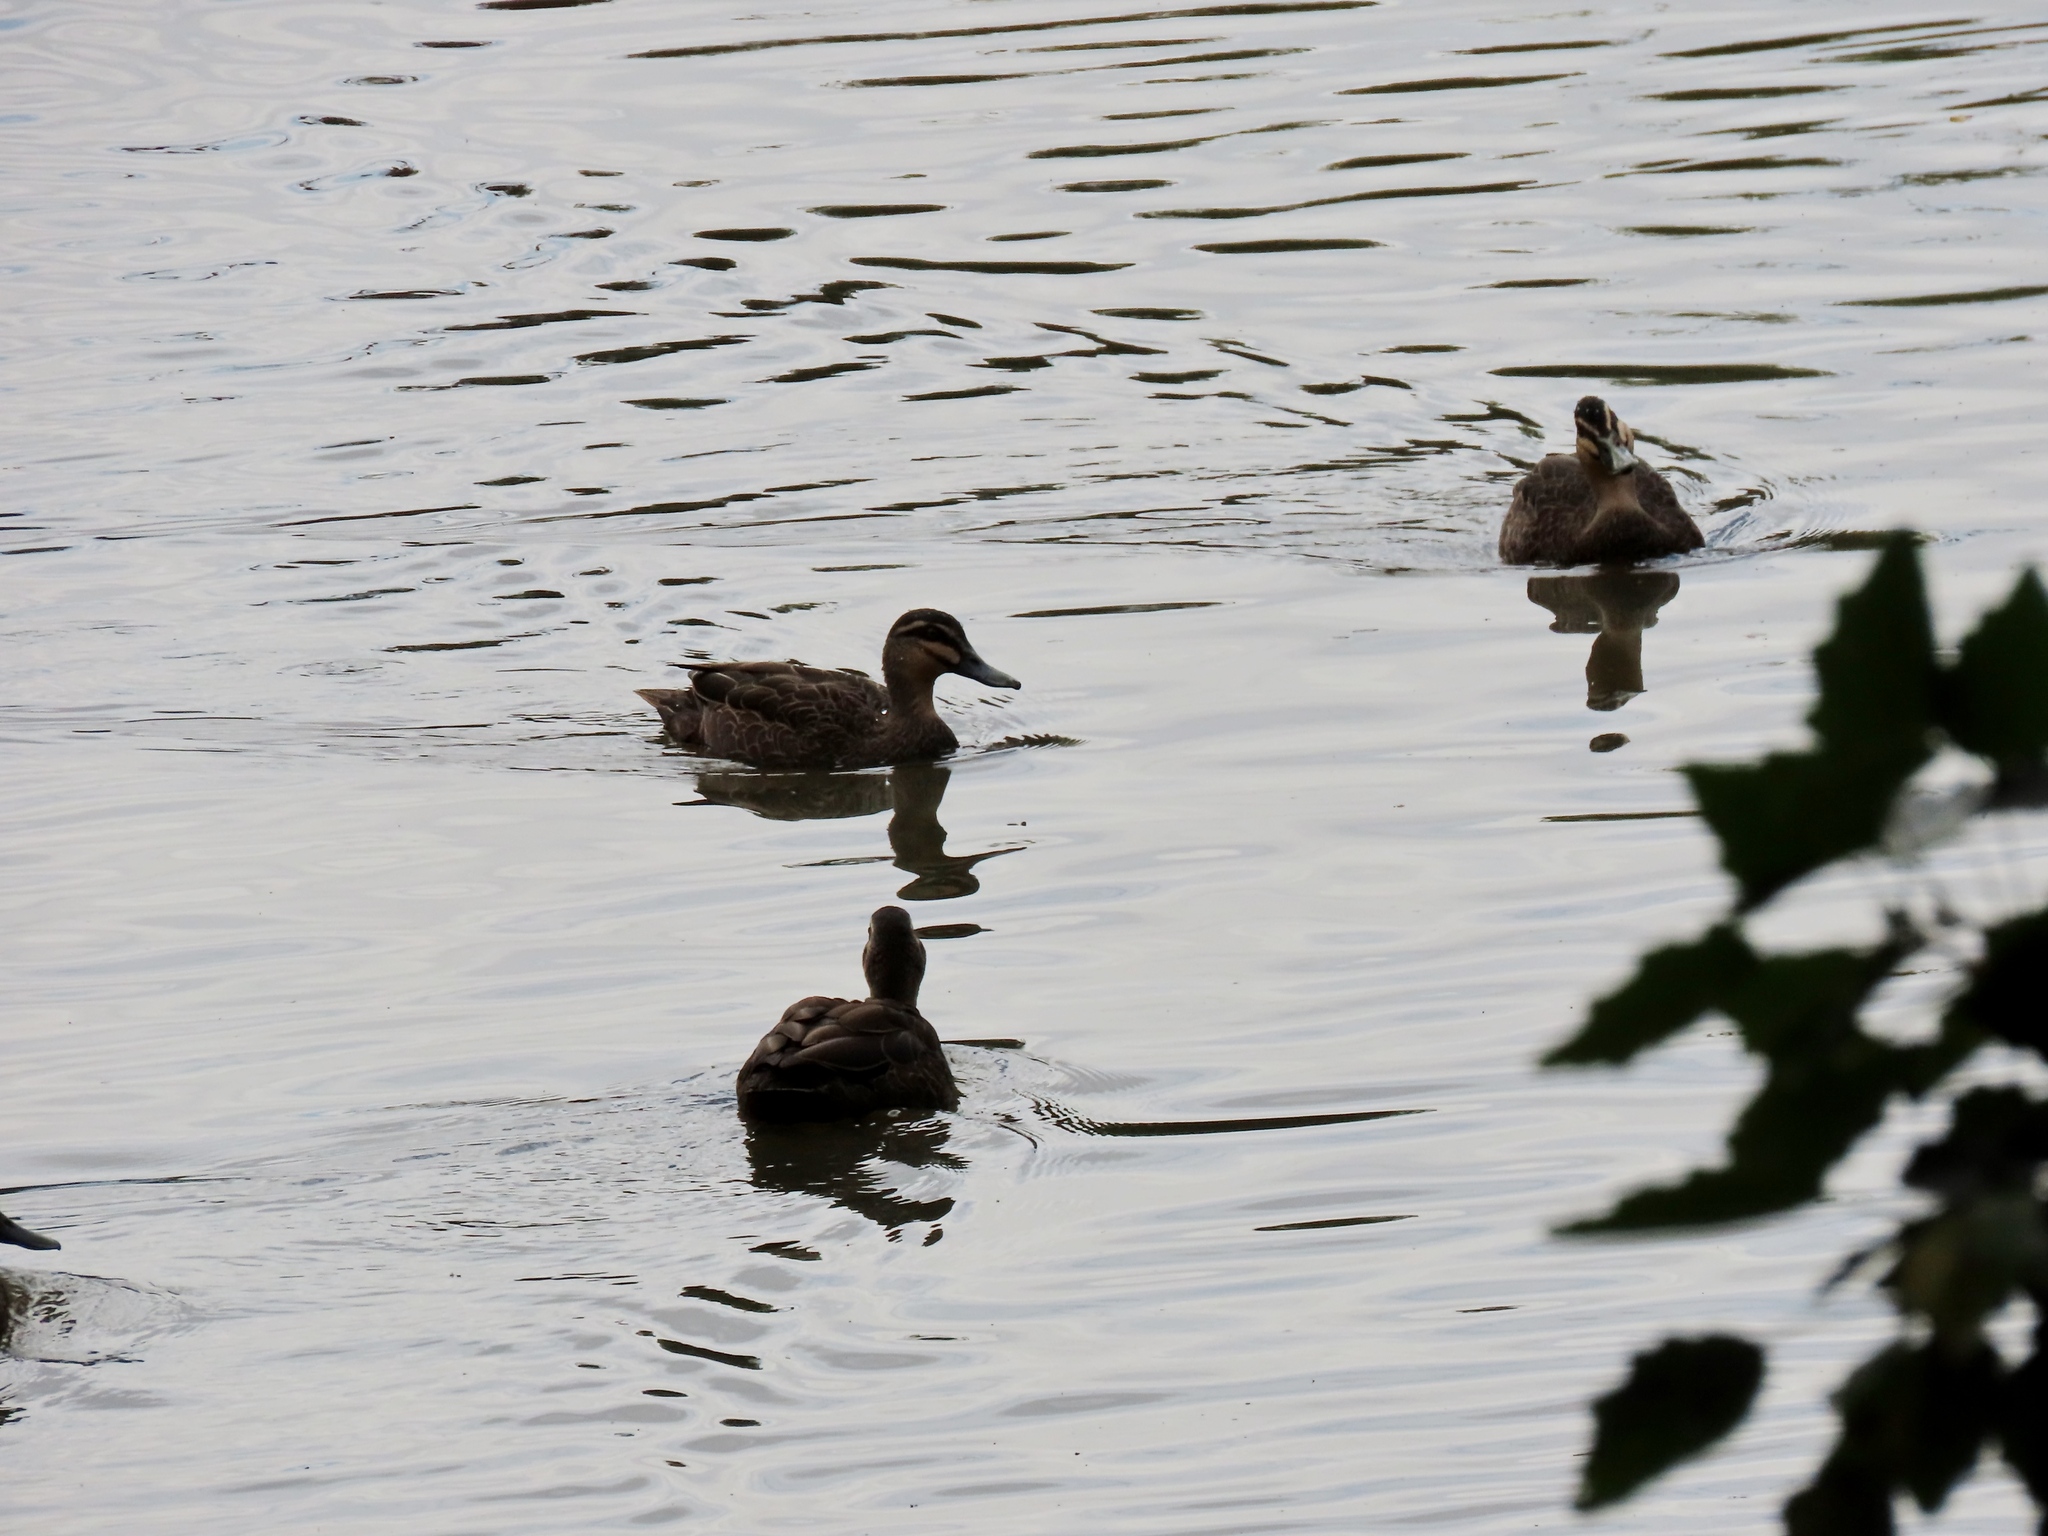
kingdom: Animalia
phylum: Chordata
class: Aves
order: Anseriformes
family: Anatidae
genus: Anas
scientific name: Anas superciliosa
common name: Pacific black duck
